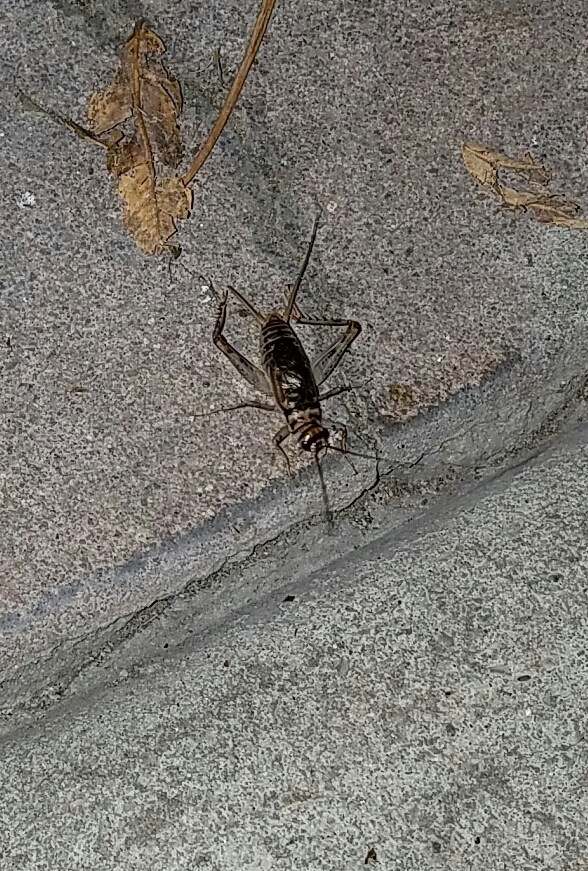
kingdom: Animalia
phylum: Arthropoda
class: Insecta
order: Orthoptera
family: Gryllidae
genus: Gryllodes
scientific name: Gryllodes sigillatus
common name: Tropical house cricket
